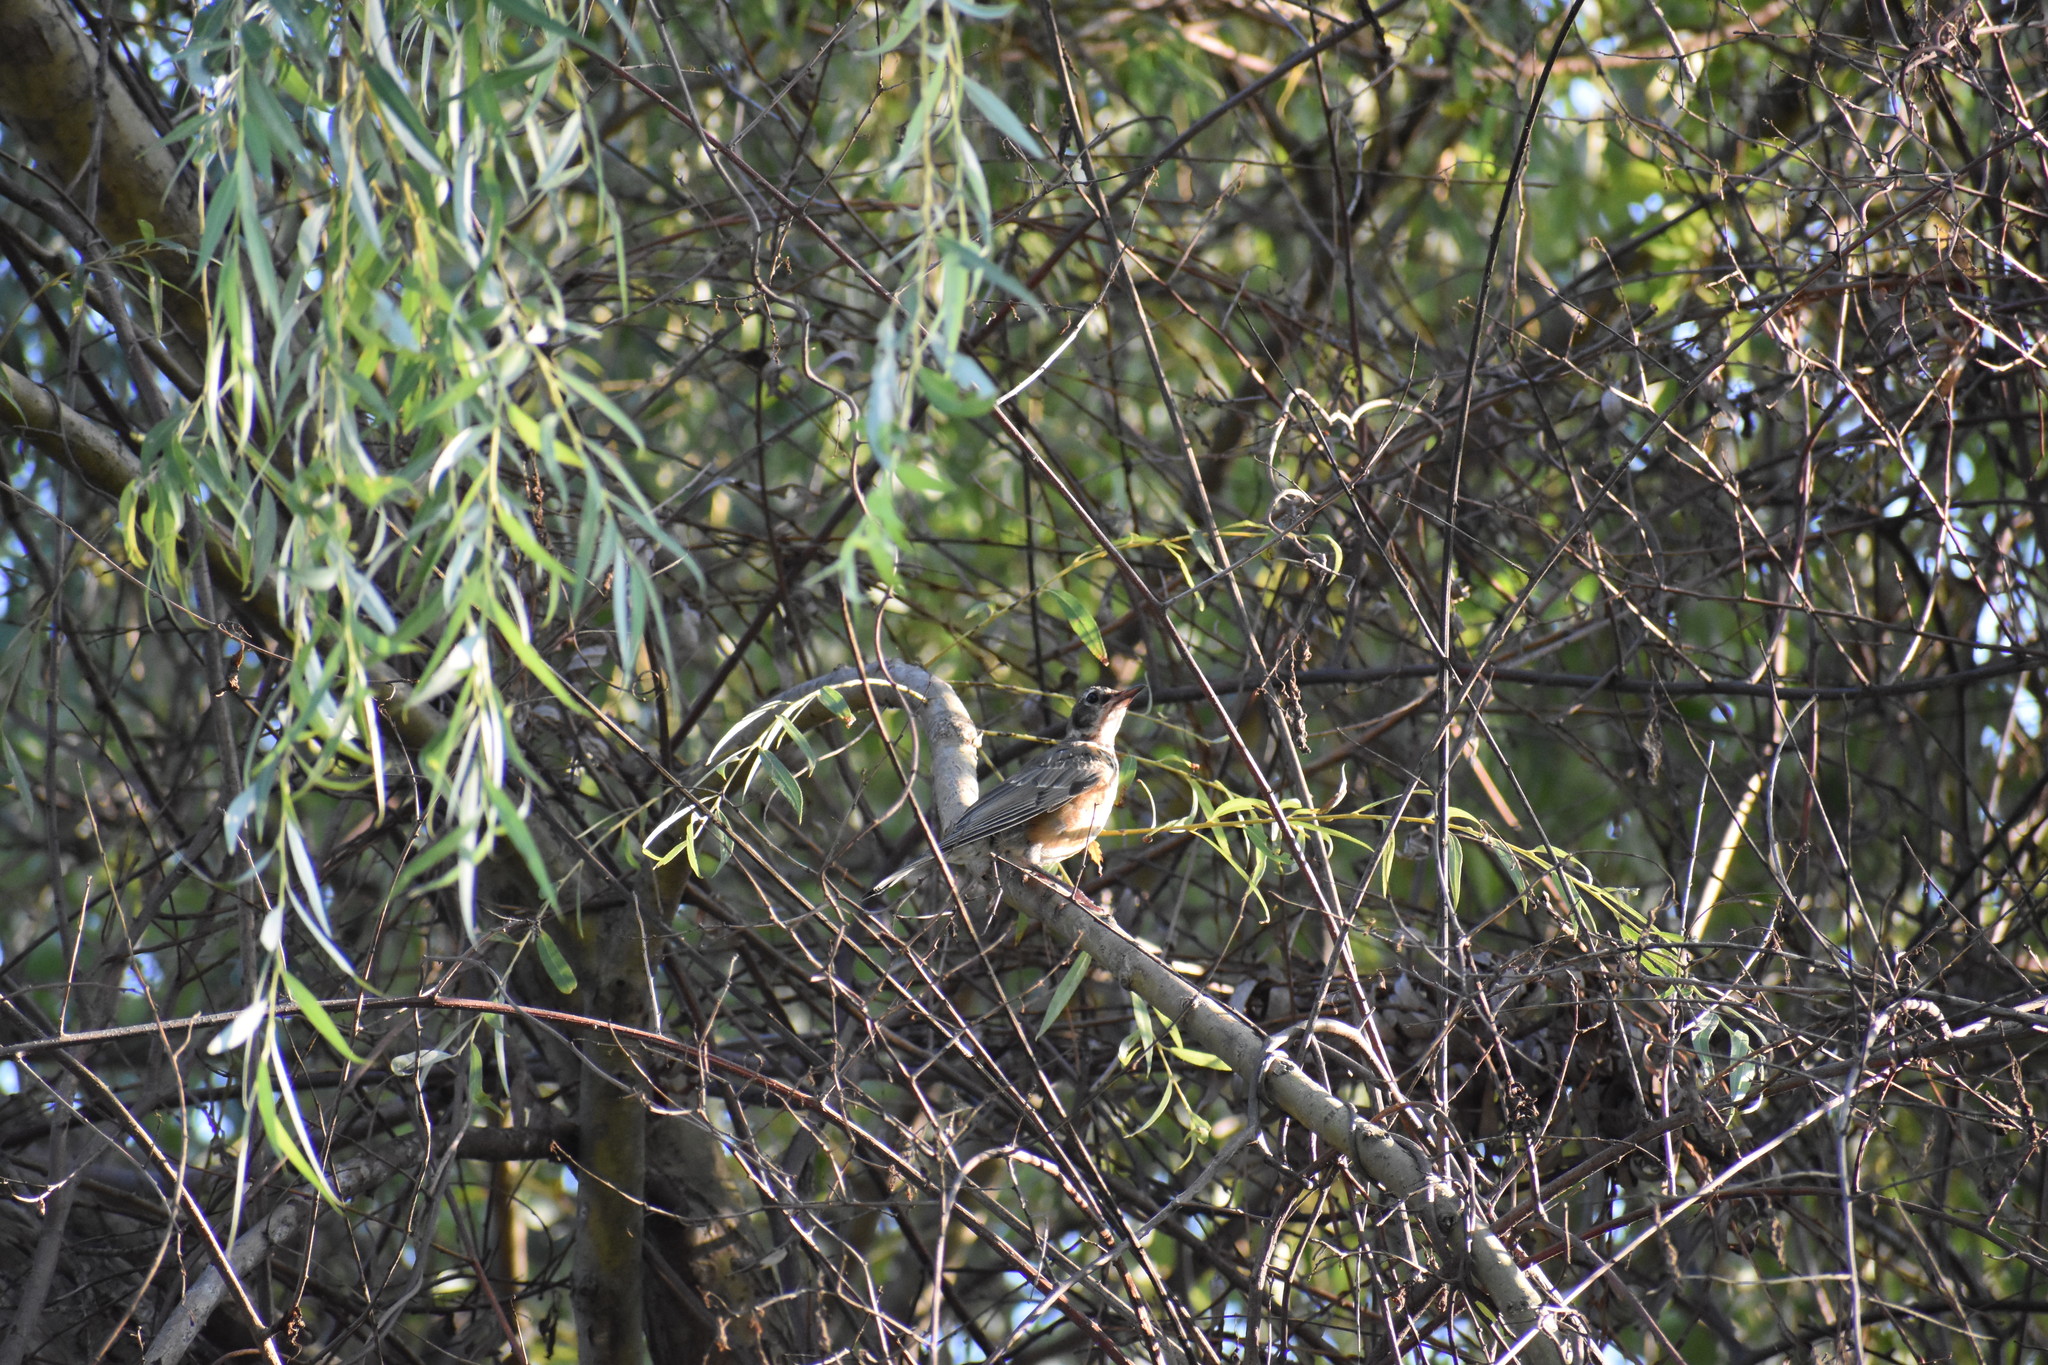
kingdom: Animalia
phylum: Chordata
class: Aves
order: Passeriformes
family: Turdidae
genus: Turdus
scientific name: Turdus migratorius
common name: American robin
